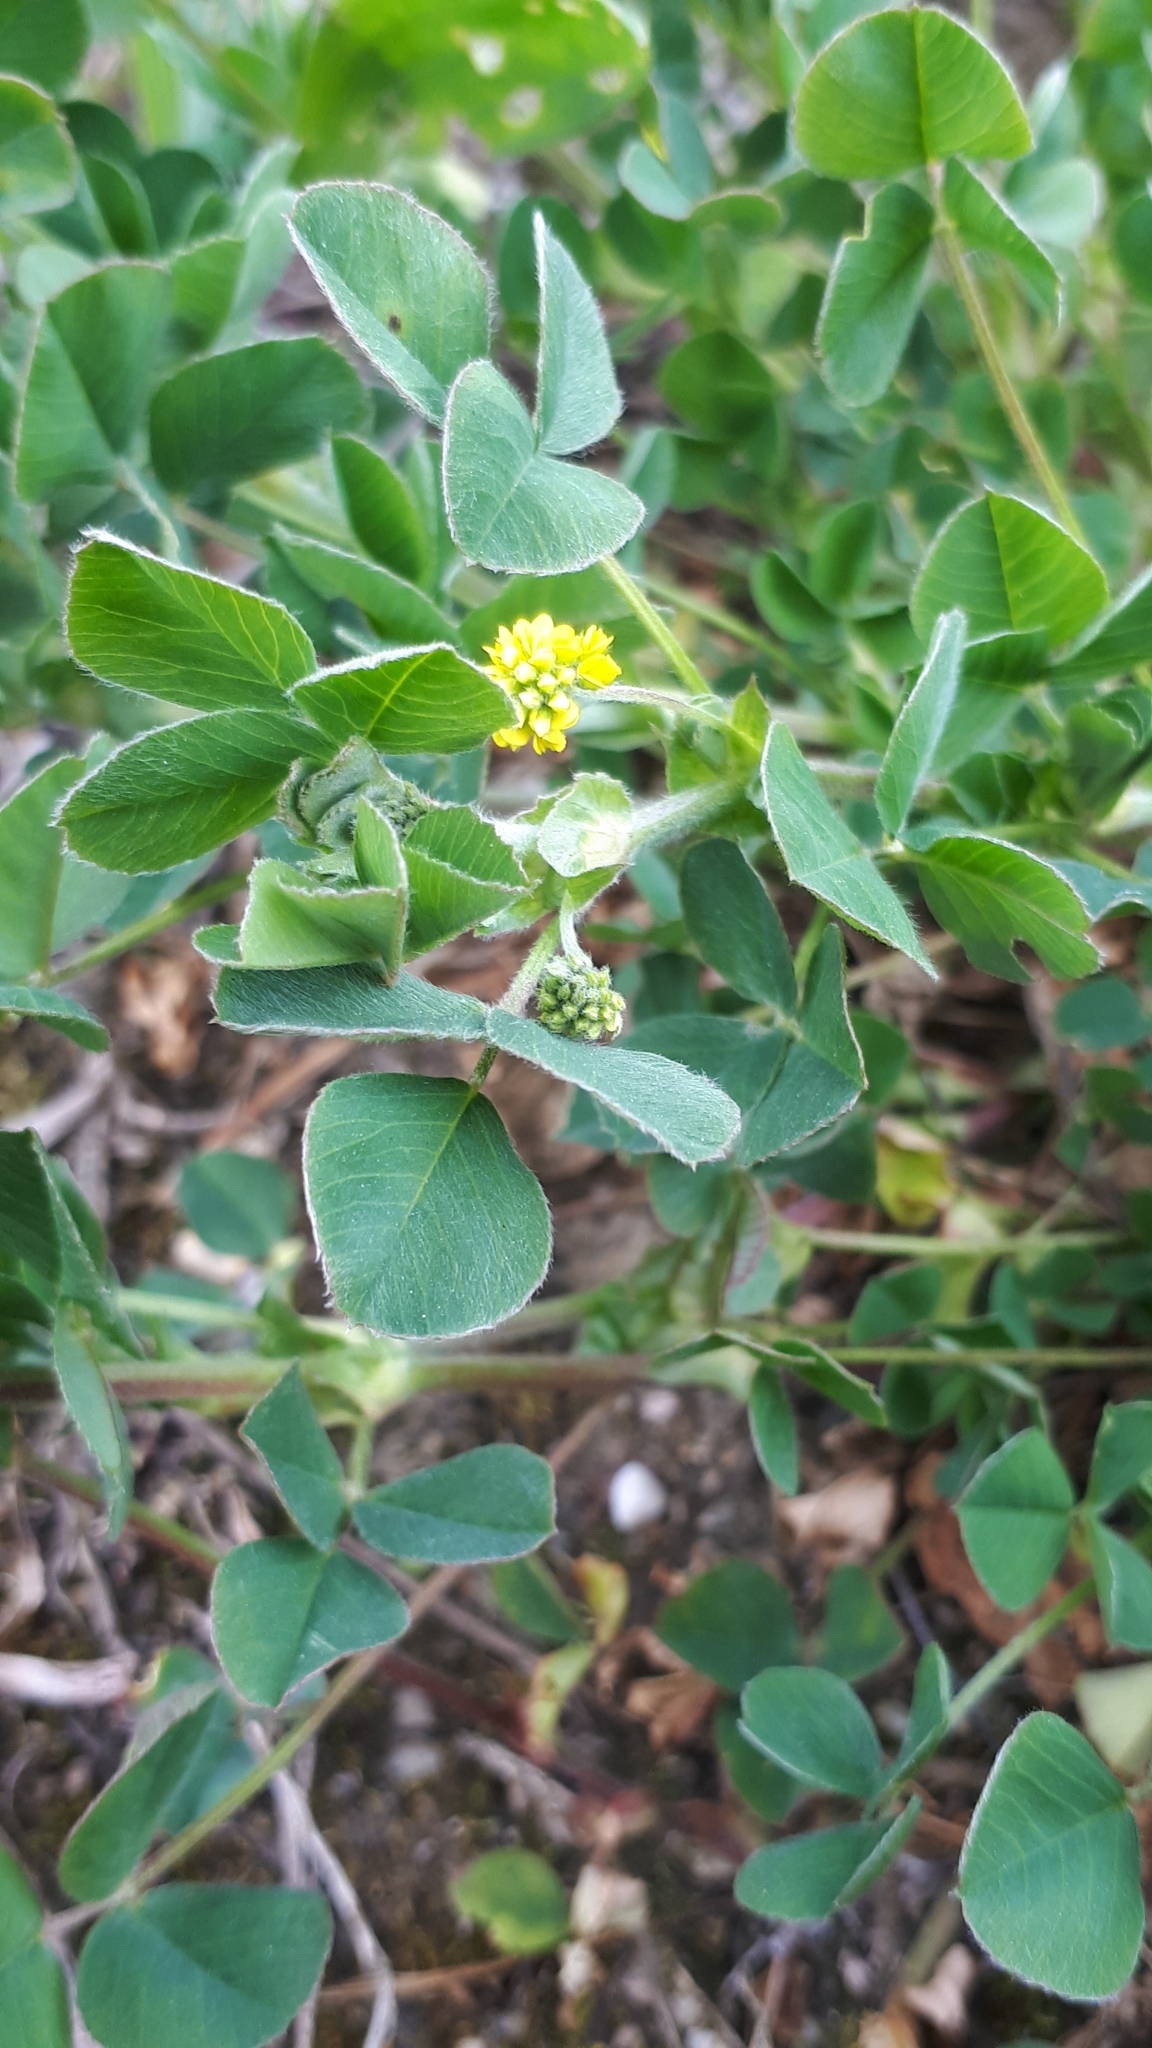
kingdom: Plantae
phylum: Tracheophyta
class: Magnoliopsida
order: Fabales
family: Fabaceae
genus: Medicago
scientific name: Medicago lupulina
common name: Black medick
